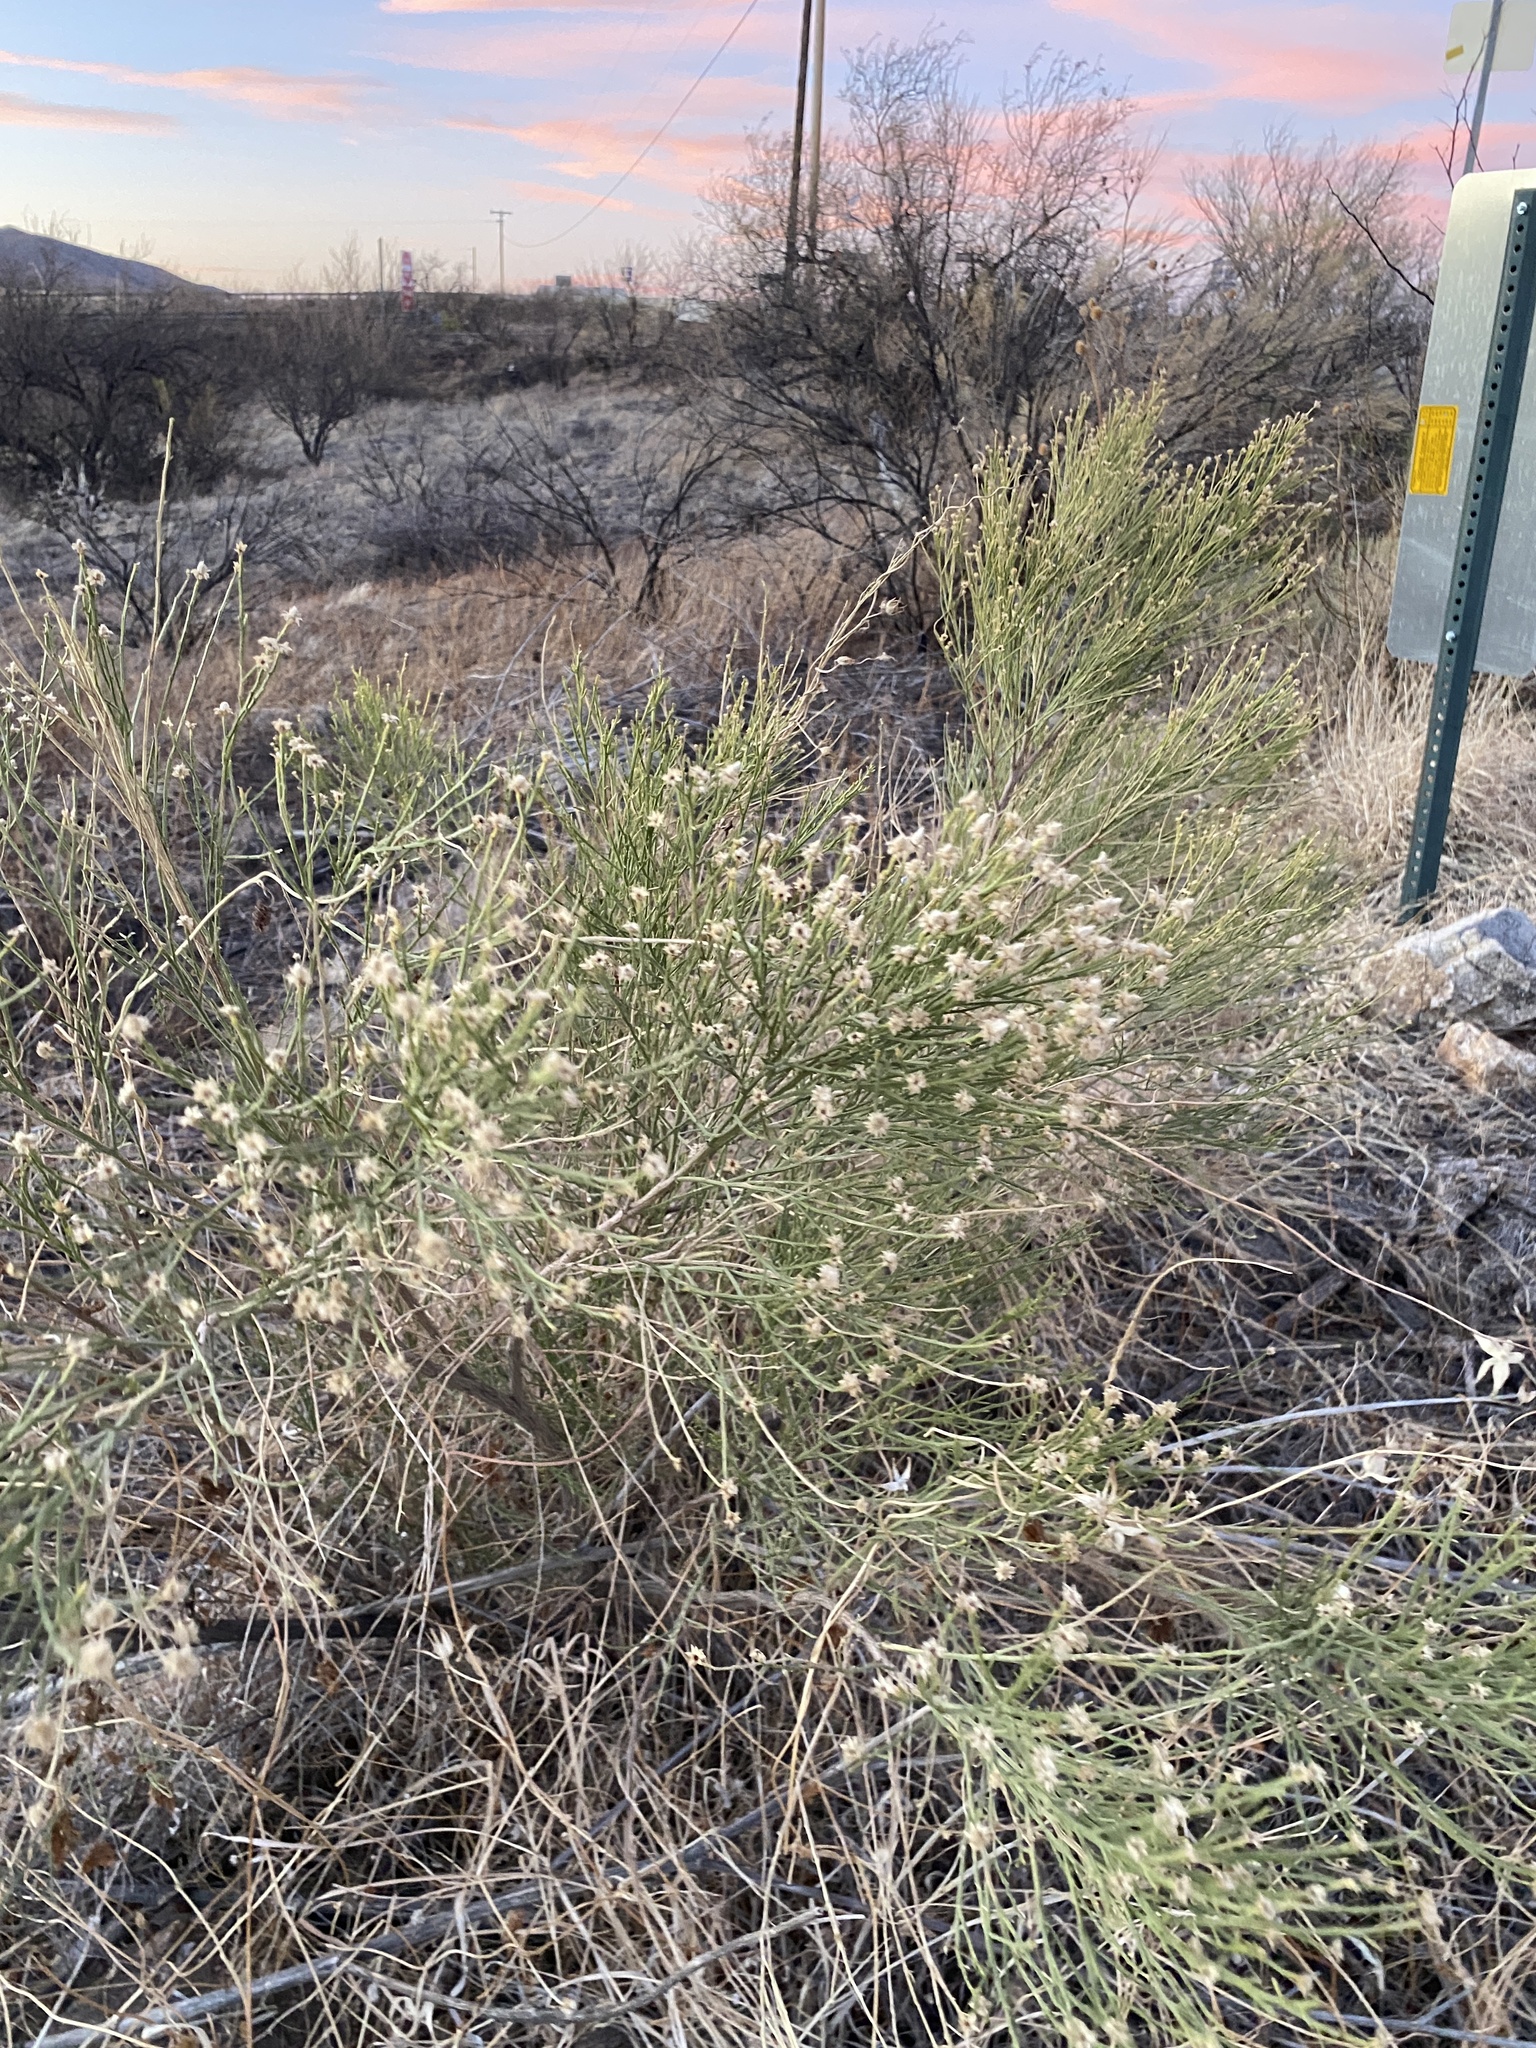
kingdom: Plantae
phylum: Tracheophyta
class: Magnoliopsida
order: Asterales
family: Asteraceae
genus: Baccharis
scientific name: Baccharis sarothroides
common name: Desert-broom
